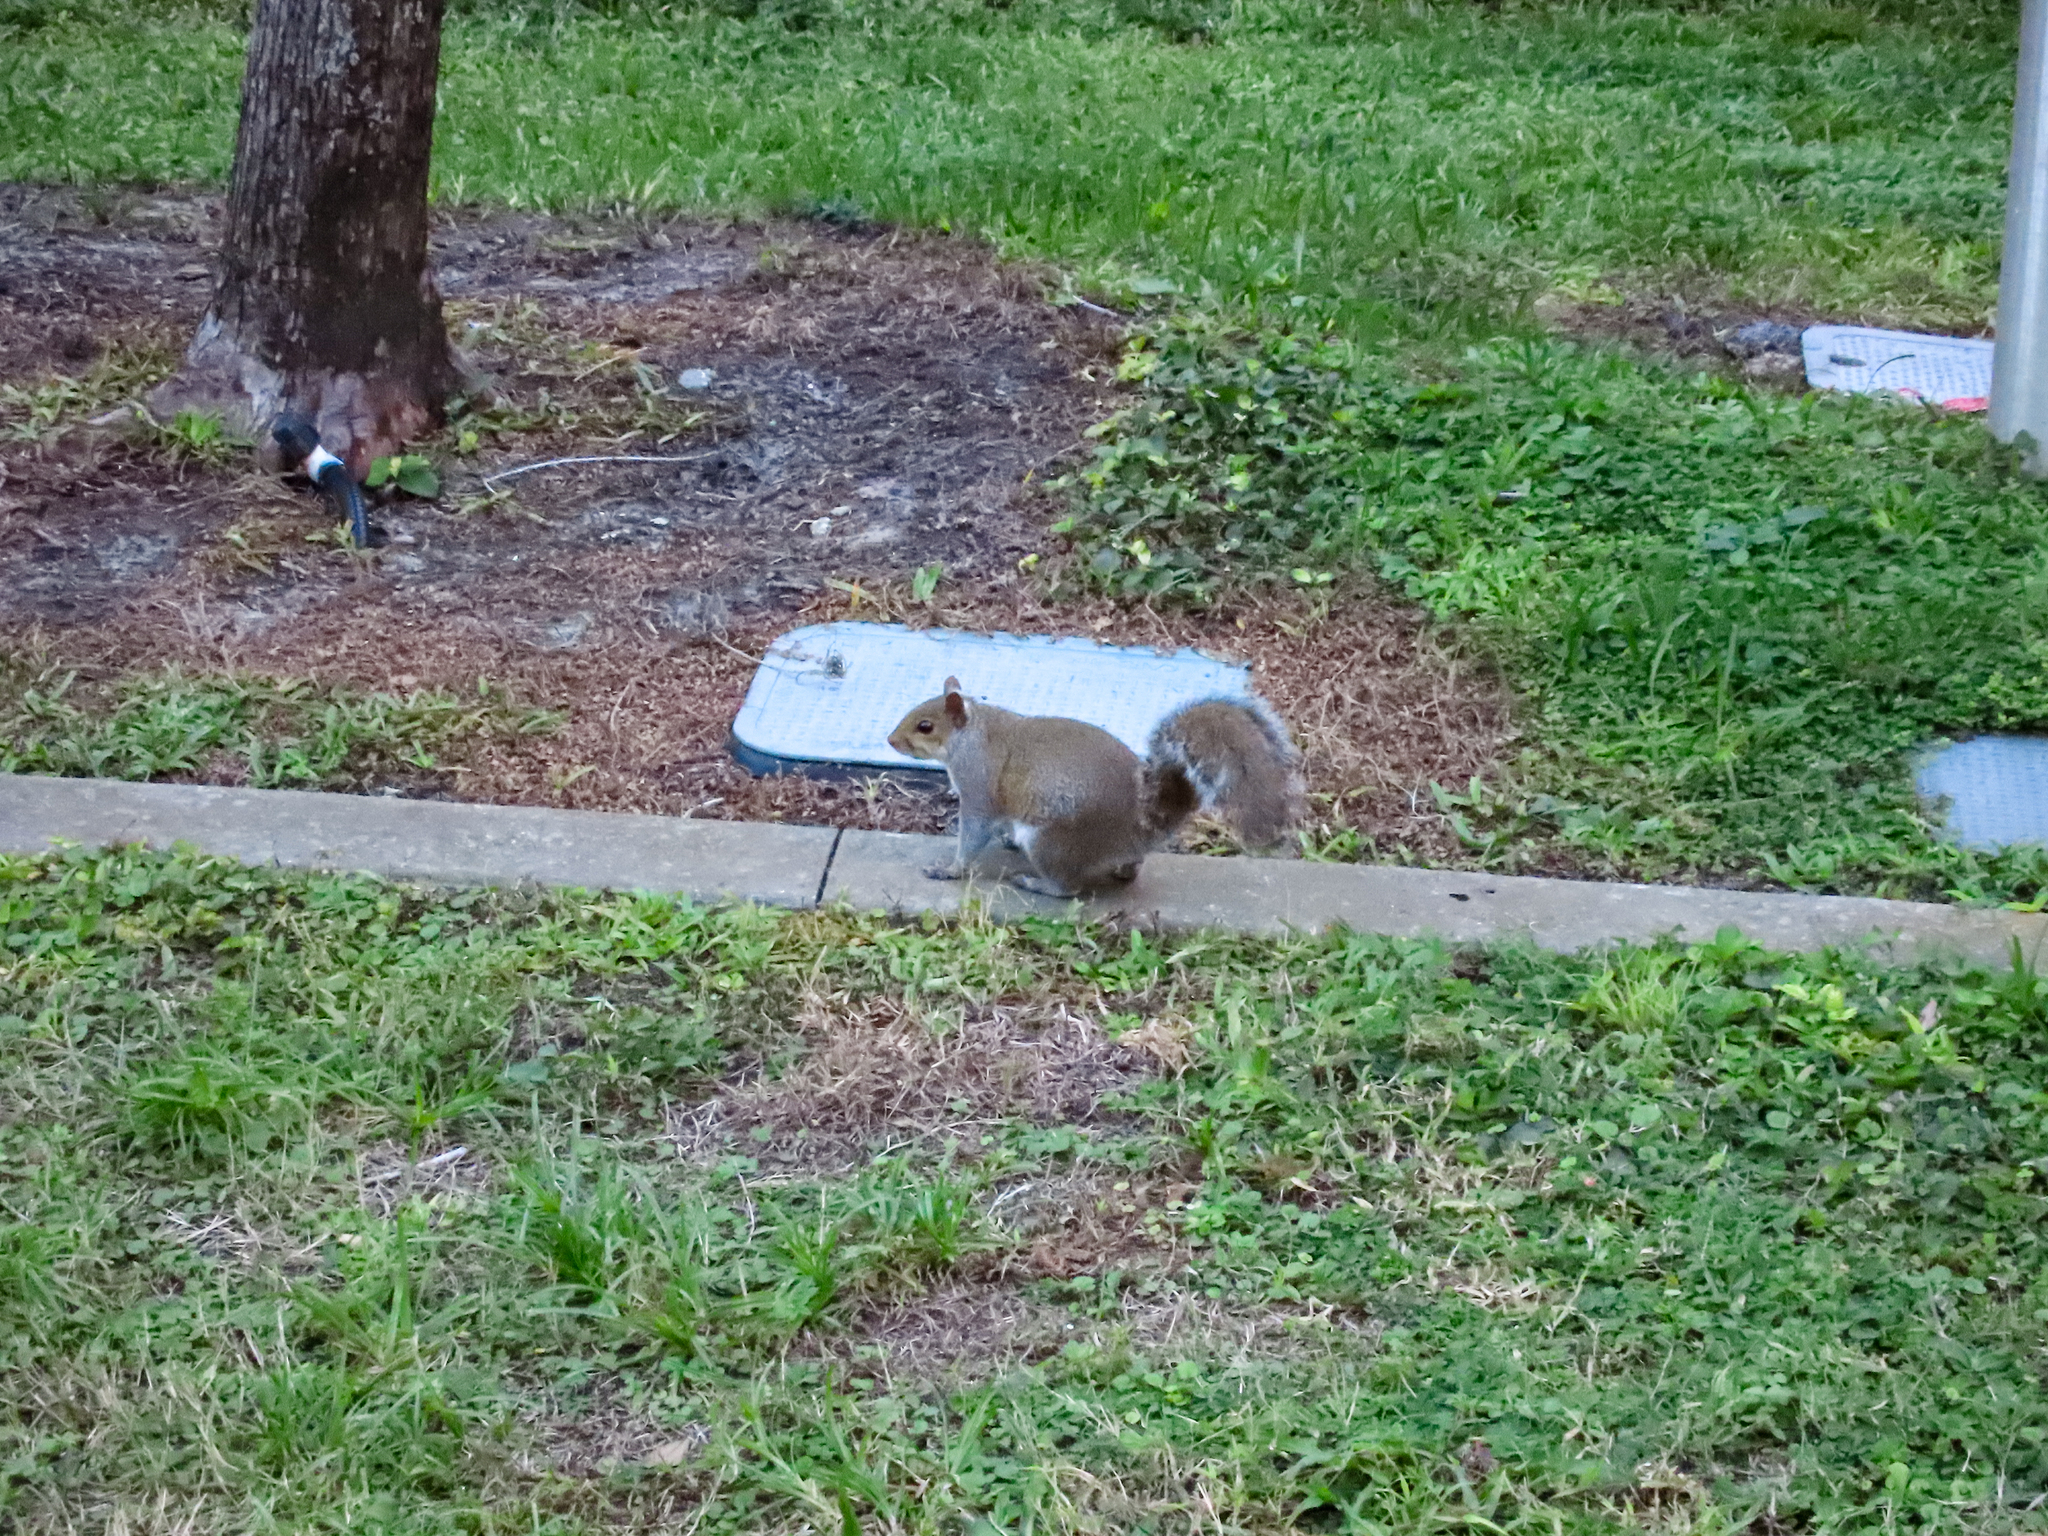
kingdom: Animalia
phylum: Chordata
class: Mammalia
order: Rodentia
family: Sciuridae
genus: Sciurus
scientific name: Sciurus carolinensis
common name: Eastern gray squirrel
